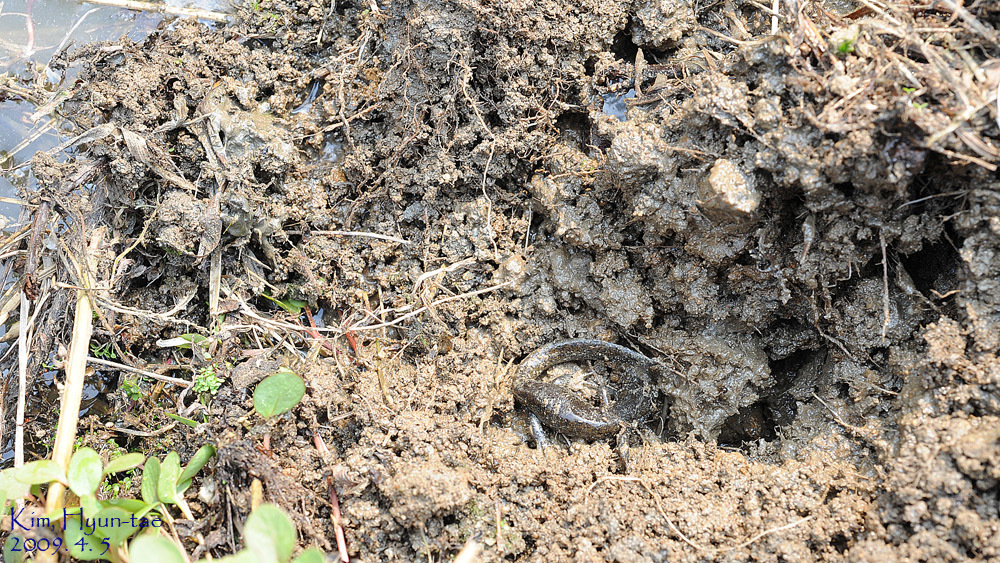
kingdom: Animalia
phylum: Chordata
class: Amphibia
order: Caudata
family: Hynobiidae
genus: Hynobius
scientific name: Hynobius leechii
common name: Gensan salamander
